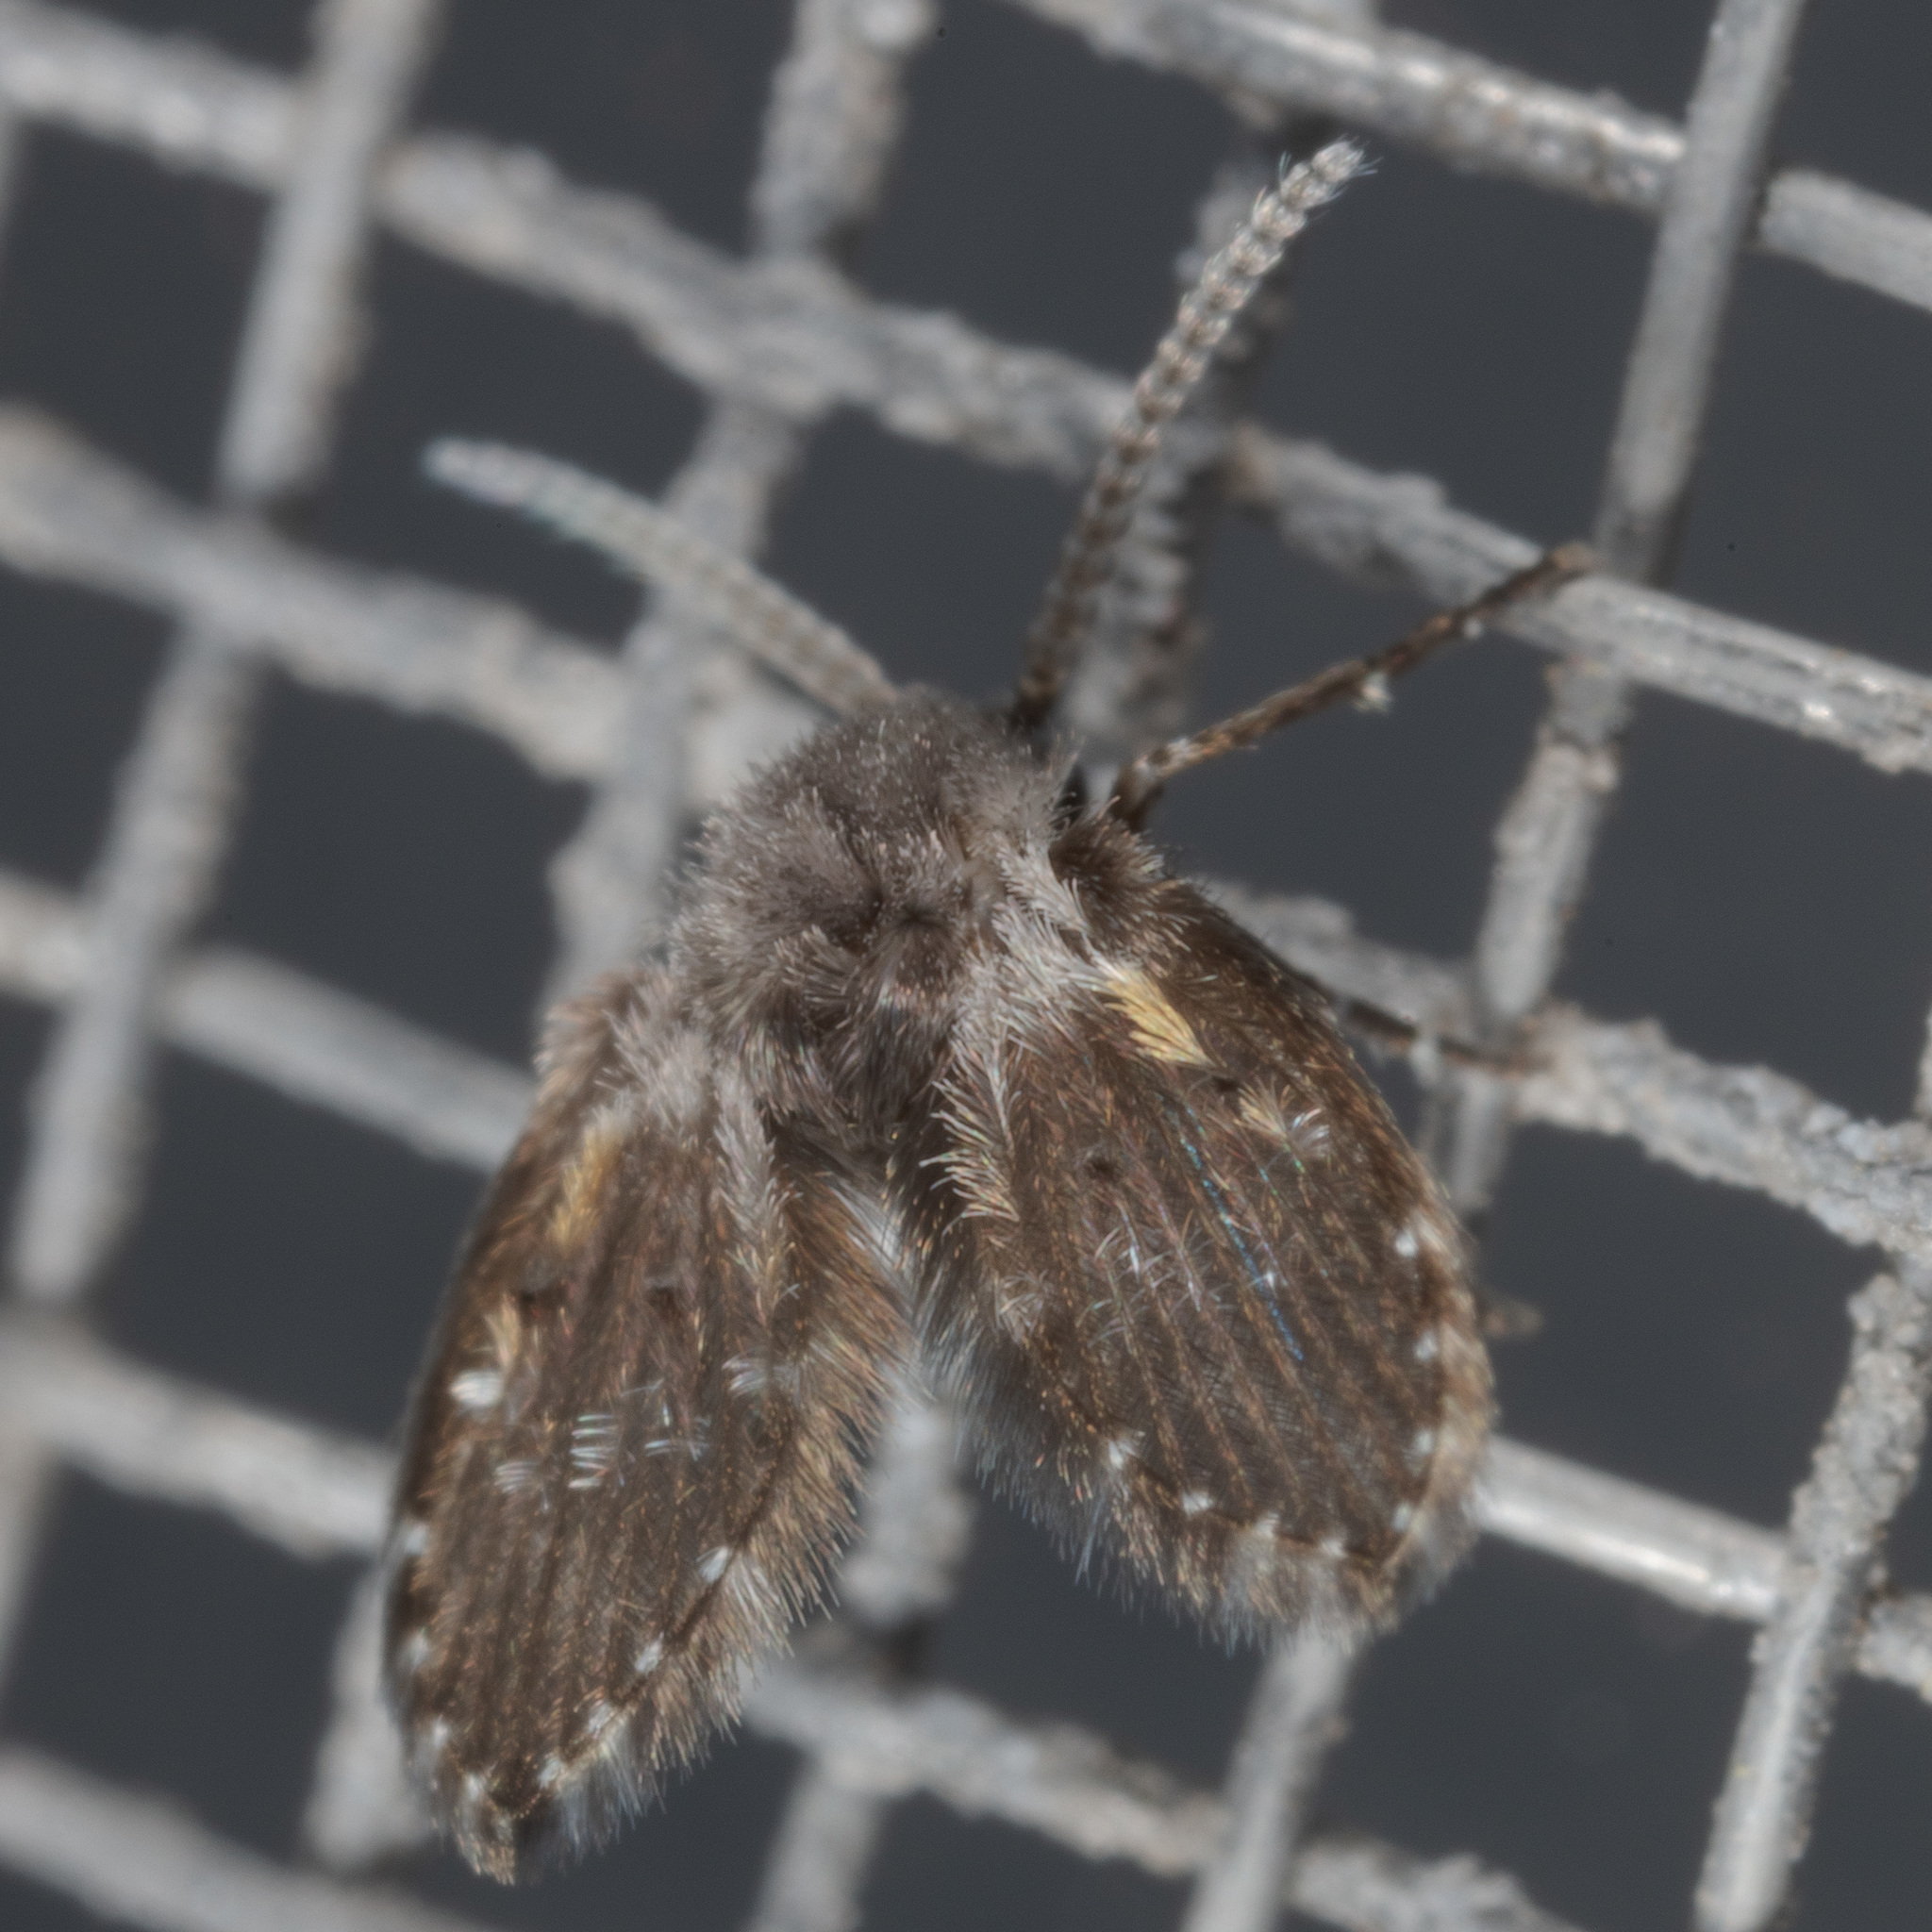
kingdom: Animalia
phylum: Arthropoda
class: Insecta
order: Diptera
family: Psychodidae
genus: Clogmia
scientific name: Clogmia albipunctatus
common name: White-spotted moth fly
